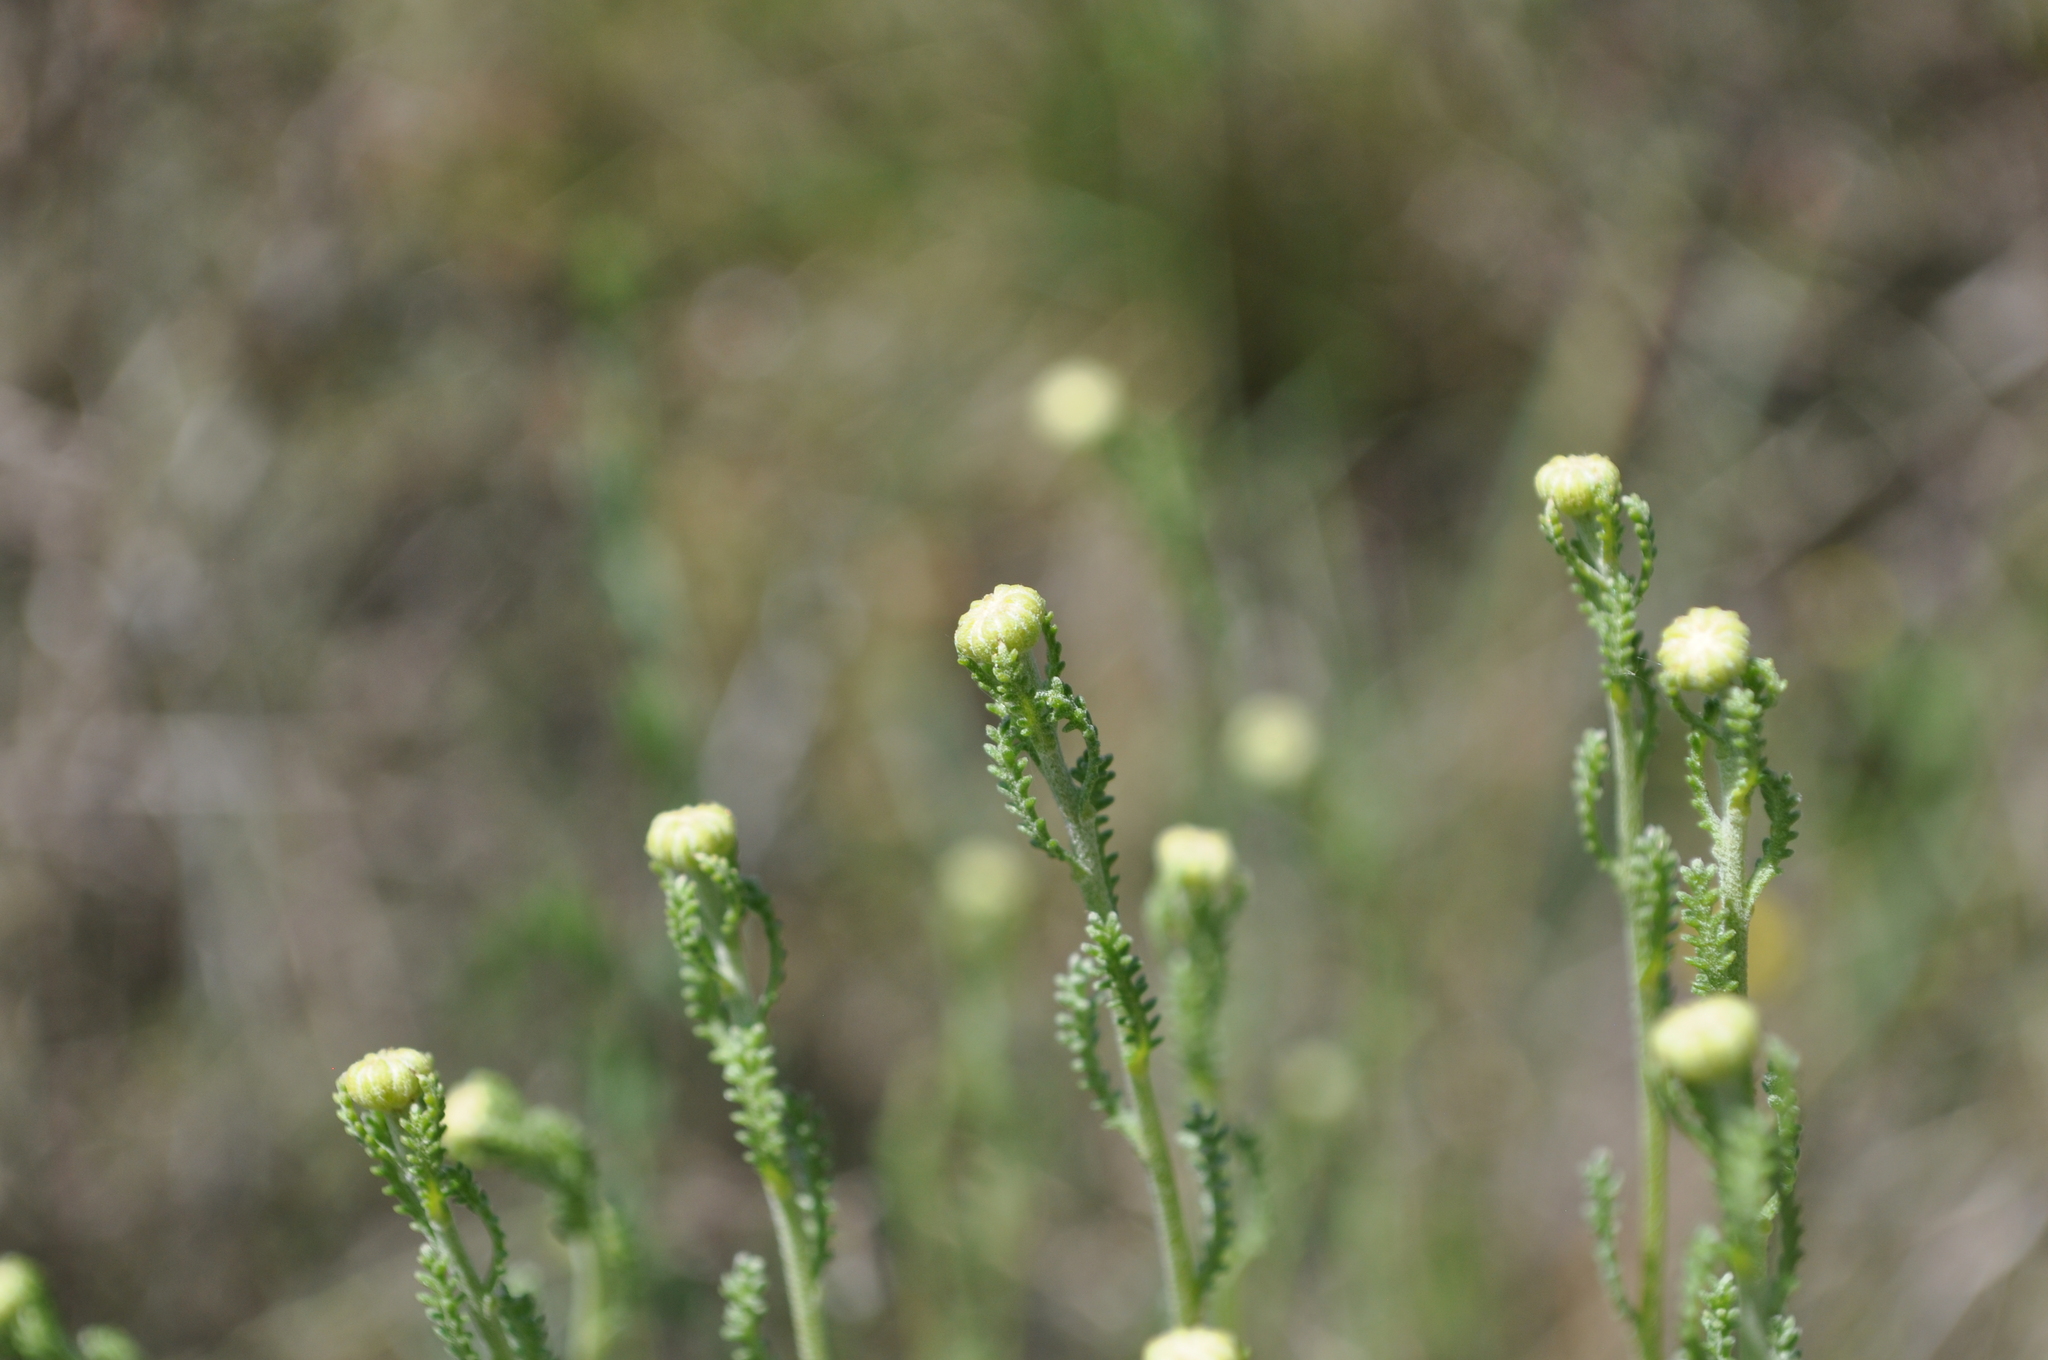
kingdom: Plantae
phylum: Tracheophyta
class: Magnoliopsida
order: Asterales
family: Asteraceae
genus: Santolina
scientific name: Santolina chamaecyparissus
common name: Lavender-cotton
